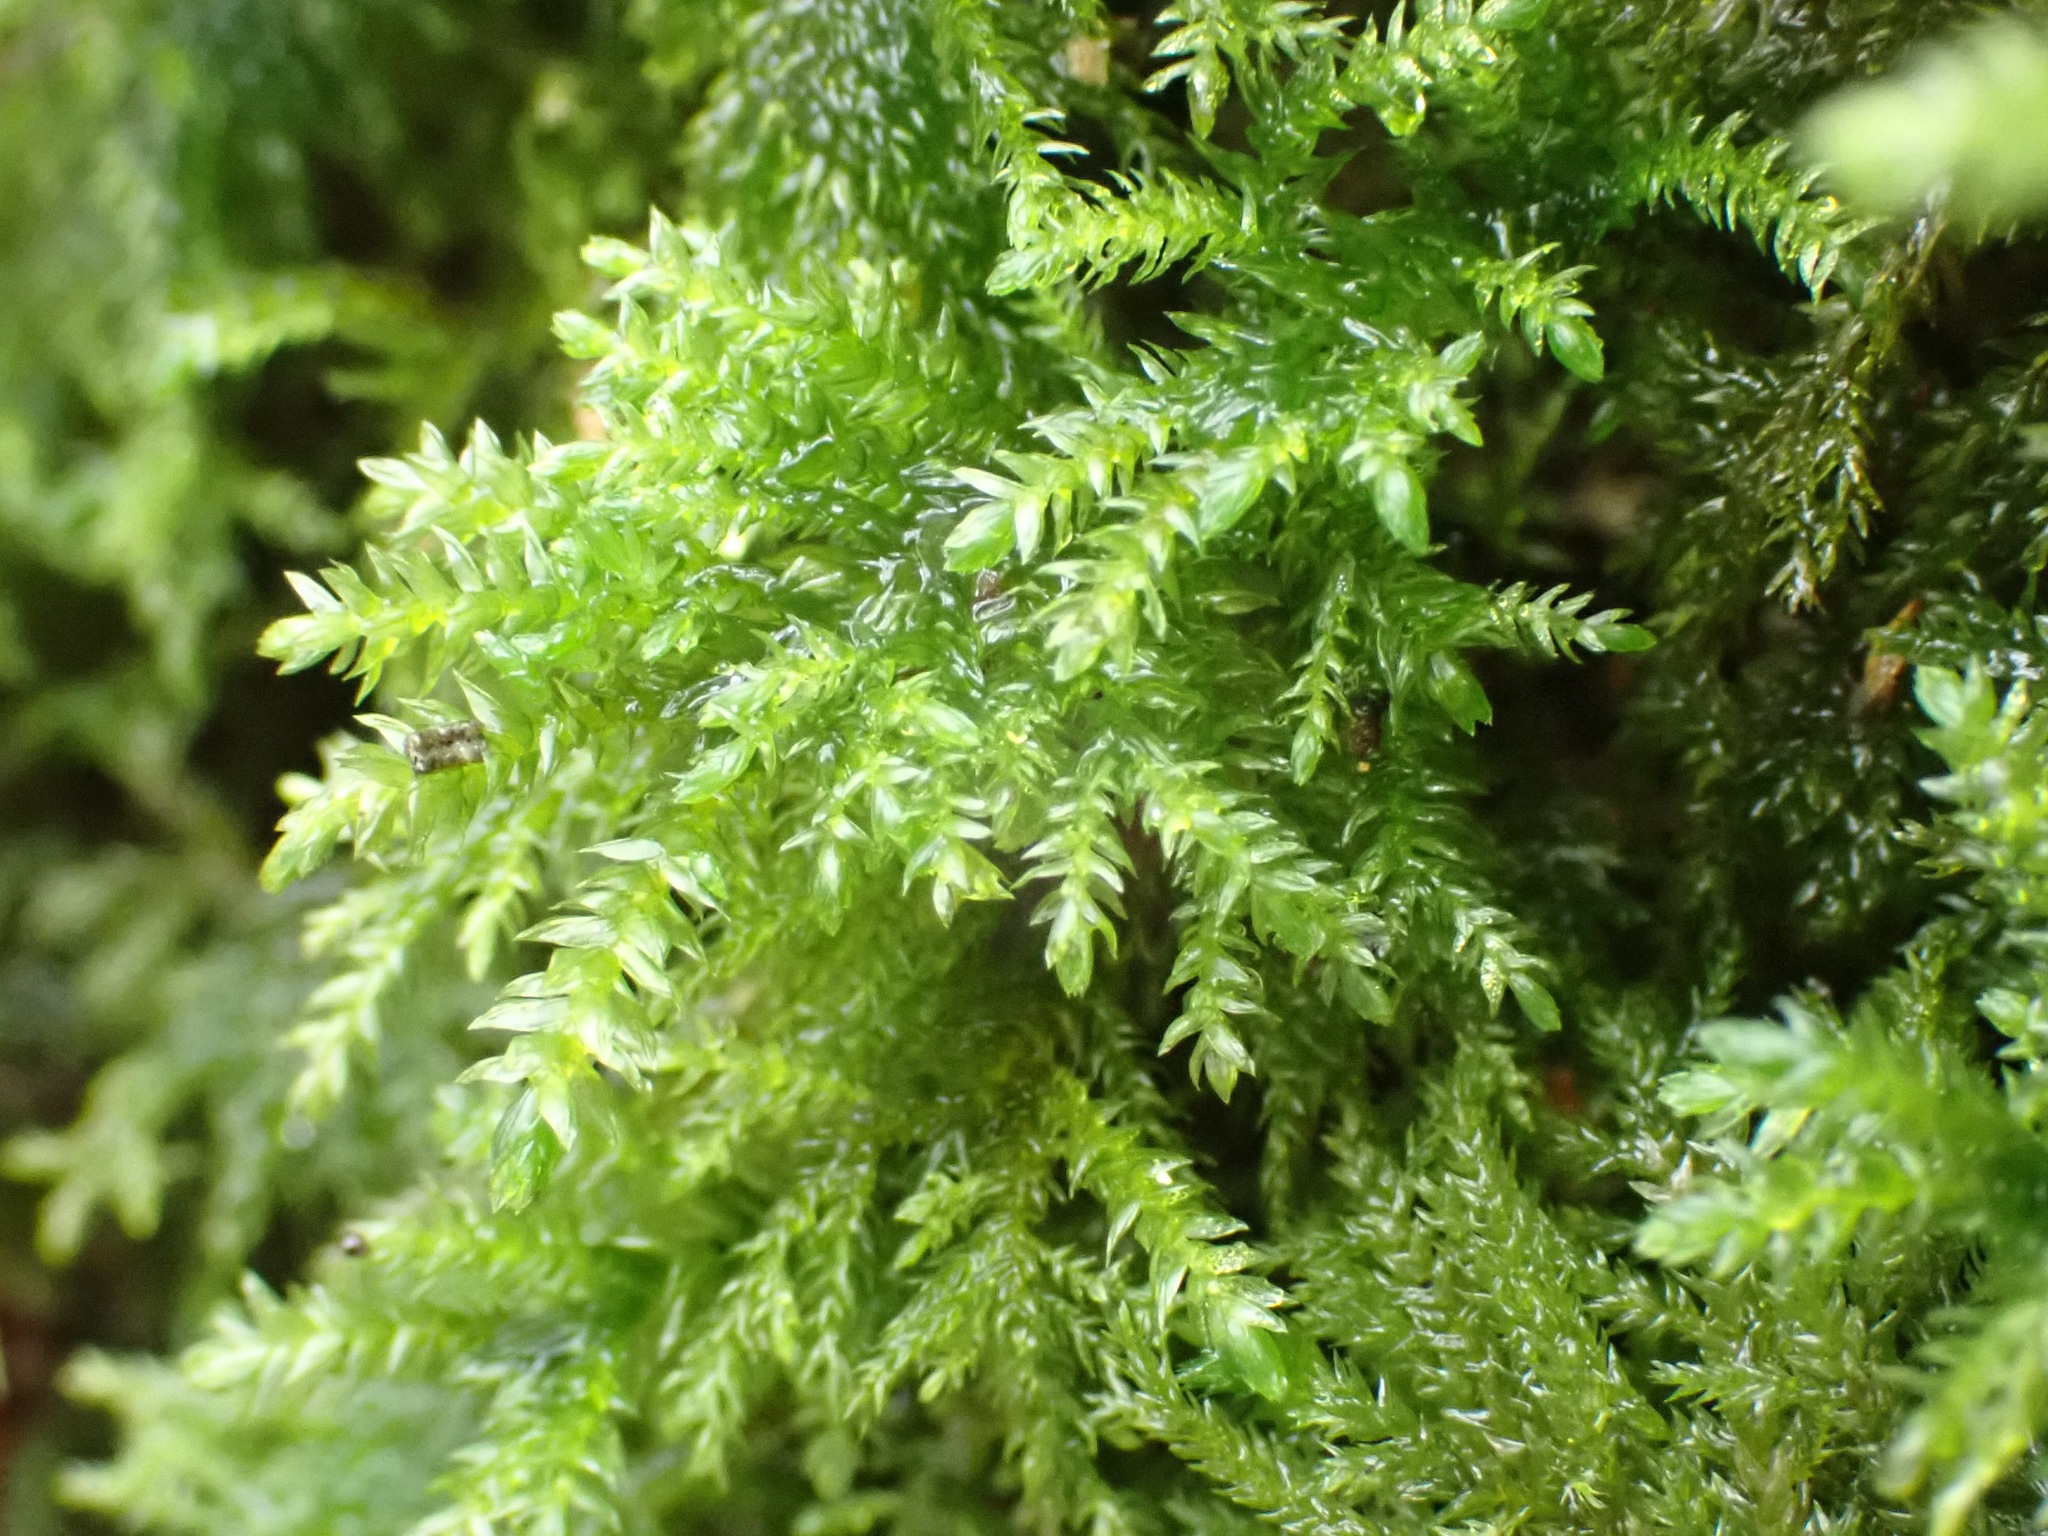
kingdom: Plantae
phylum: Bryophyta
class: Bryopsida
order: Hypnales
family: Neckeraceae
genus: Thamnobryum
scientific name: Thamnobryum alopecurum
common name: Fox-tail feather-moss
